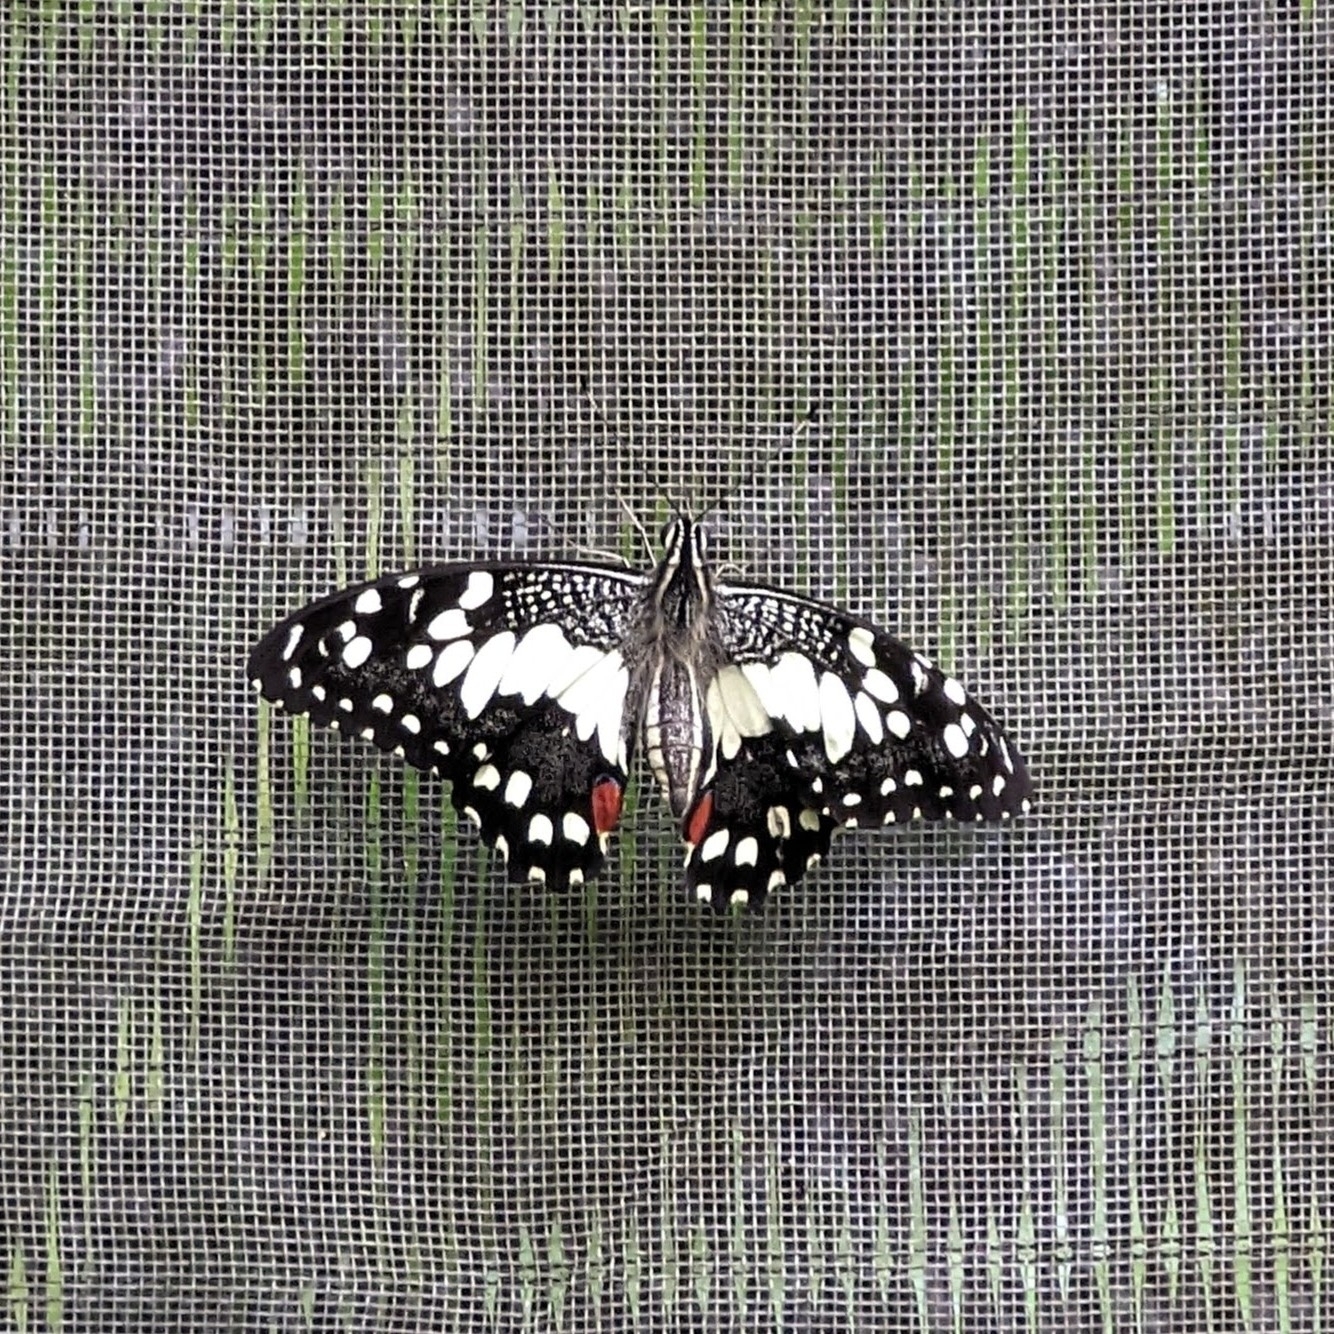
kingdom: Animalia
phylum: Arthropoda
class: Insecta
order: Lepidoptera
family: Papilionidae
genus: Papilio
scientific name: Papilio demoleus
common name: Lime butterfly
